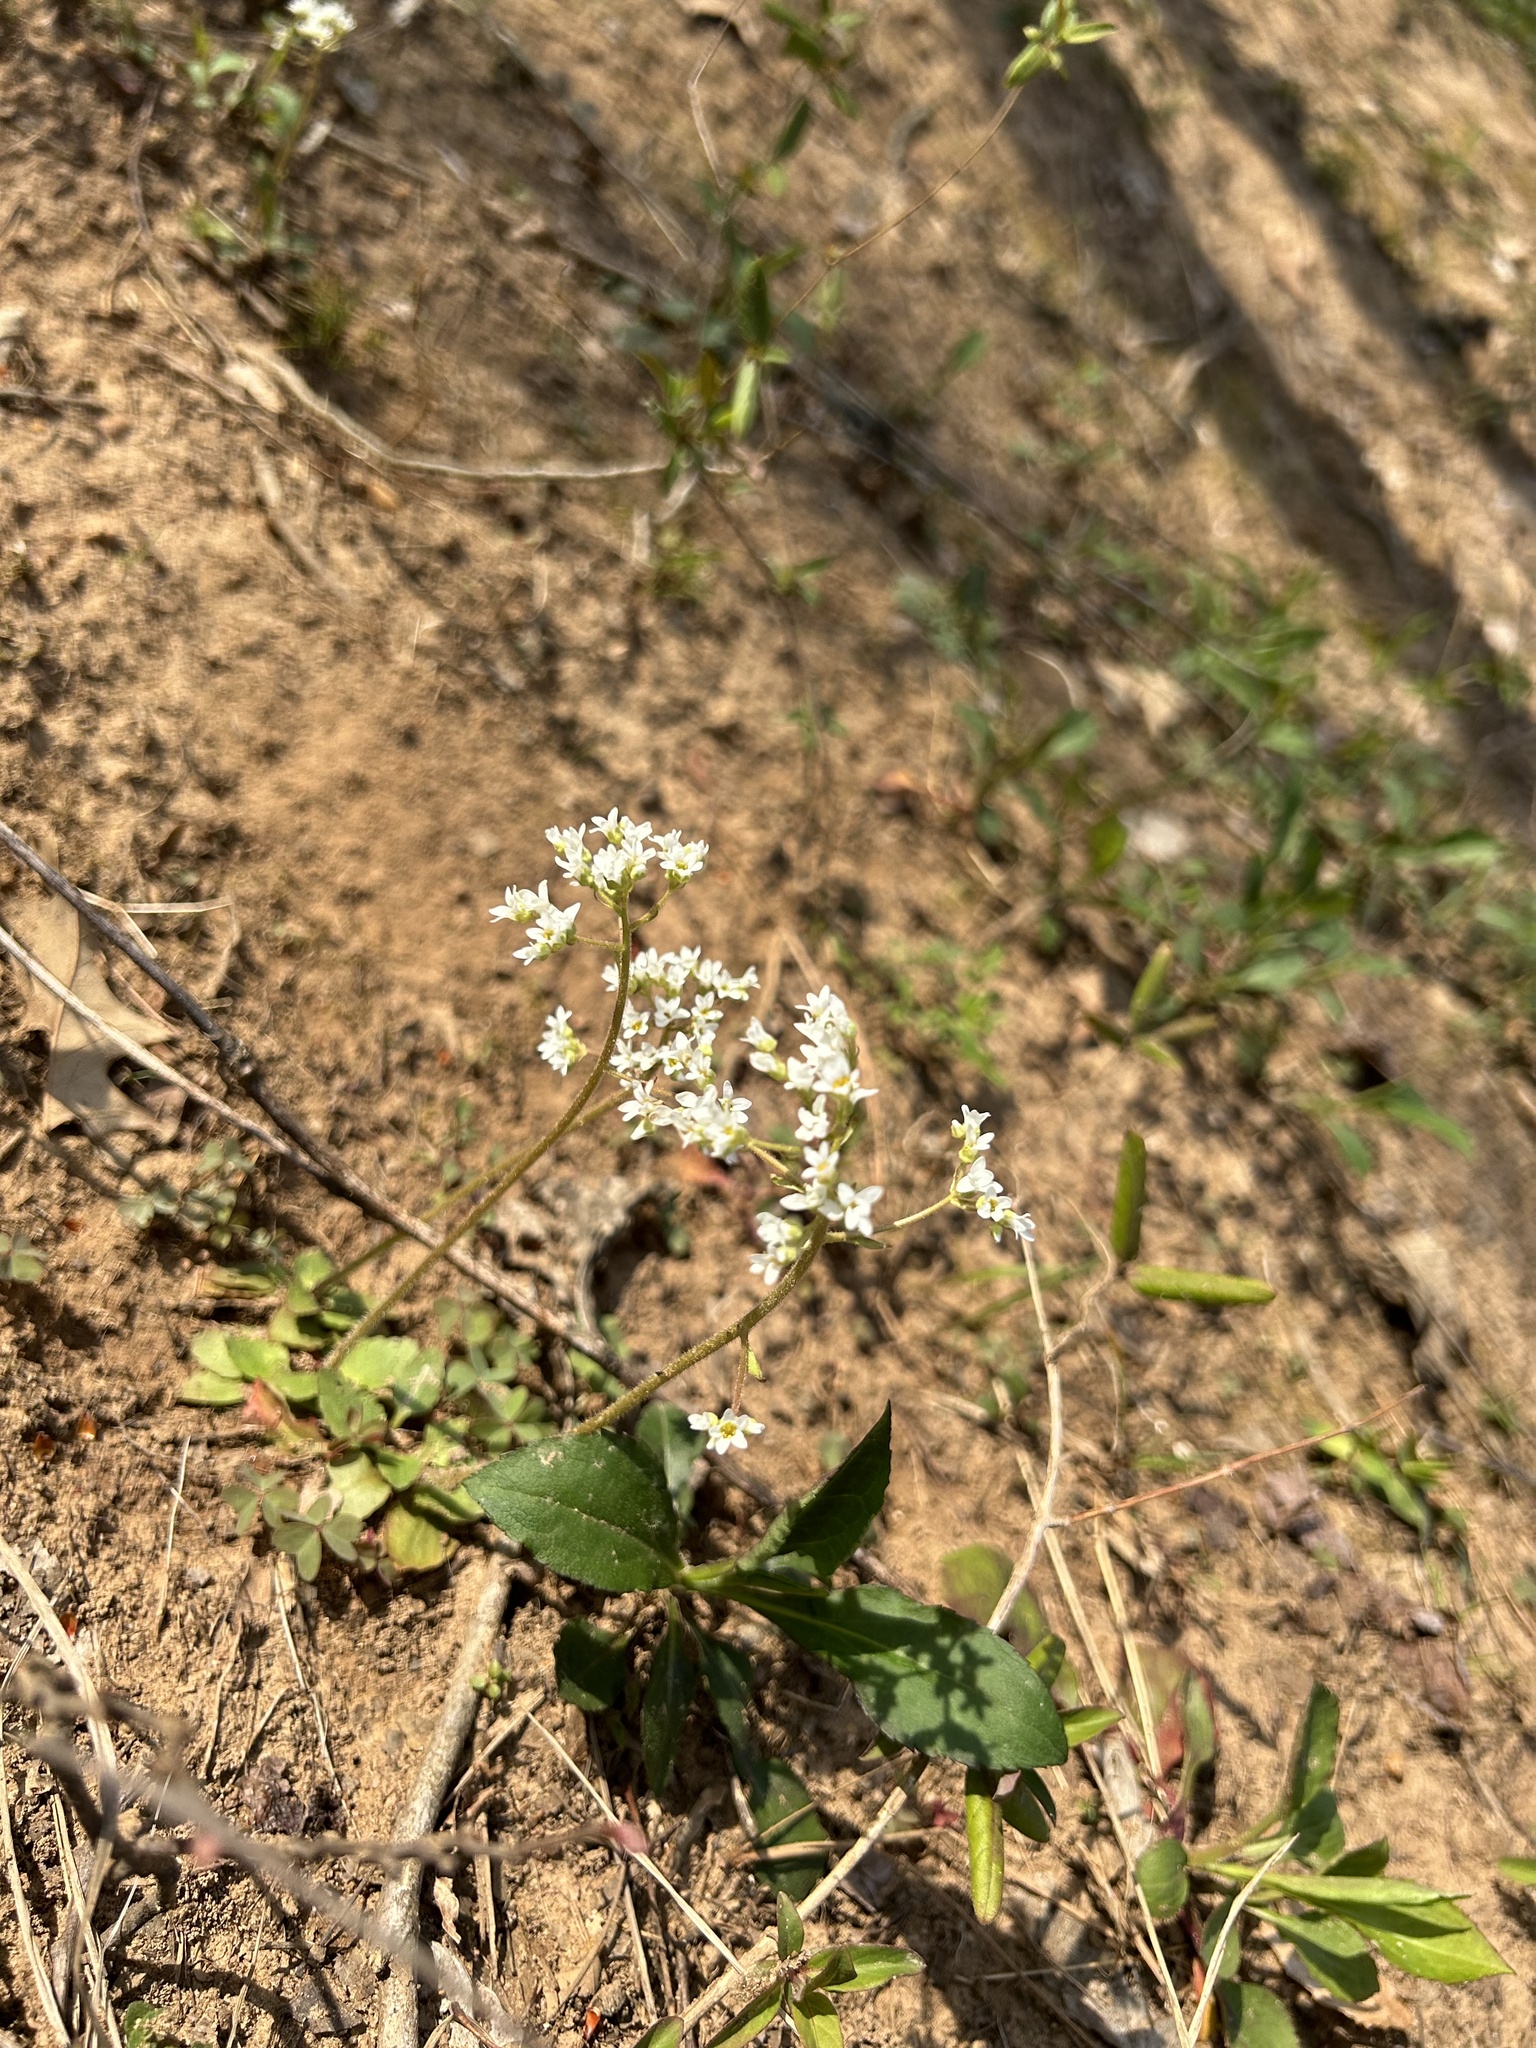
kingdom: Plantae
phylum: Tracheophyta
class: Magnoliopsida
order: Saxifragales
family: Saxifragaceae
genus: Micranthes
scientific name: Micranthes virginiensis
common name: Early saxifrage
